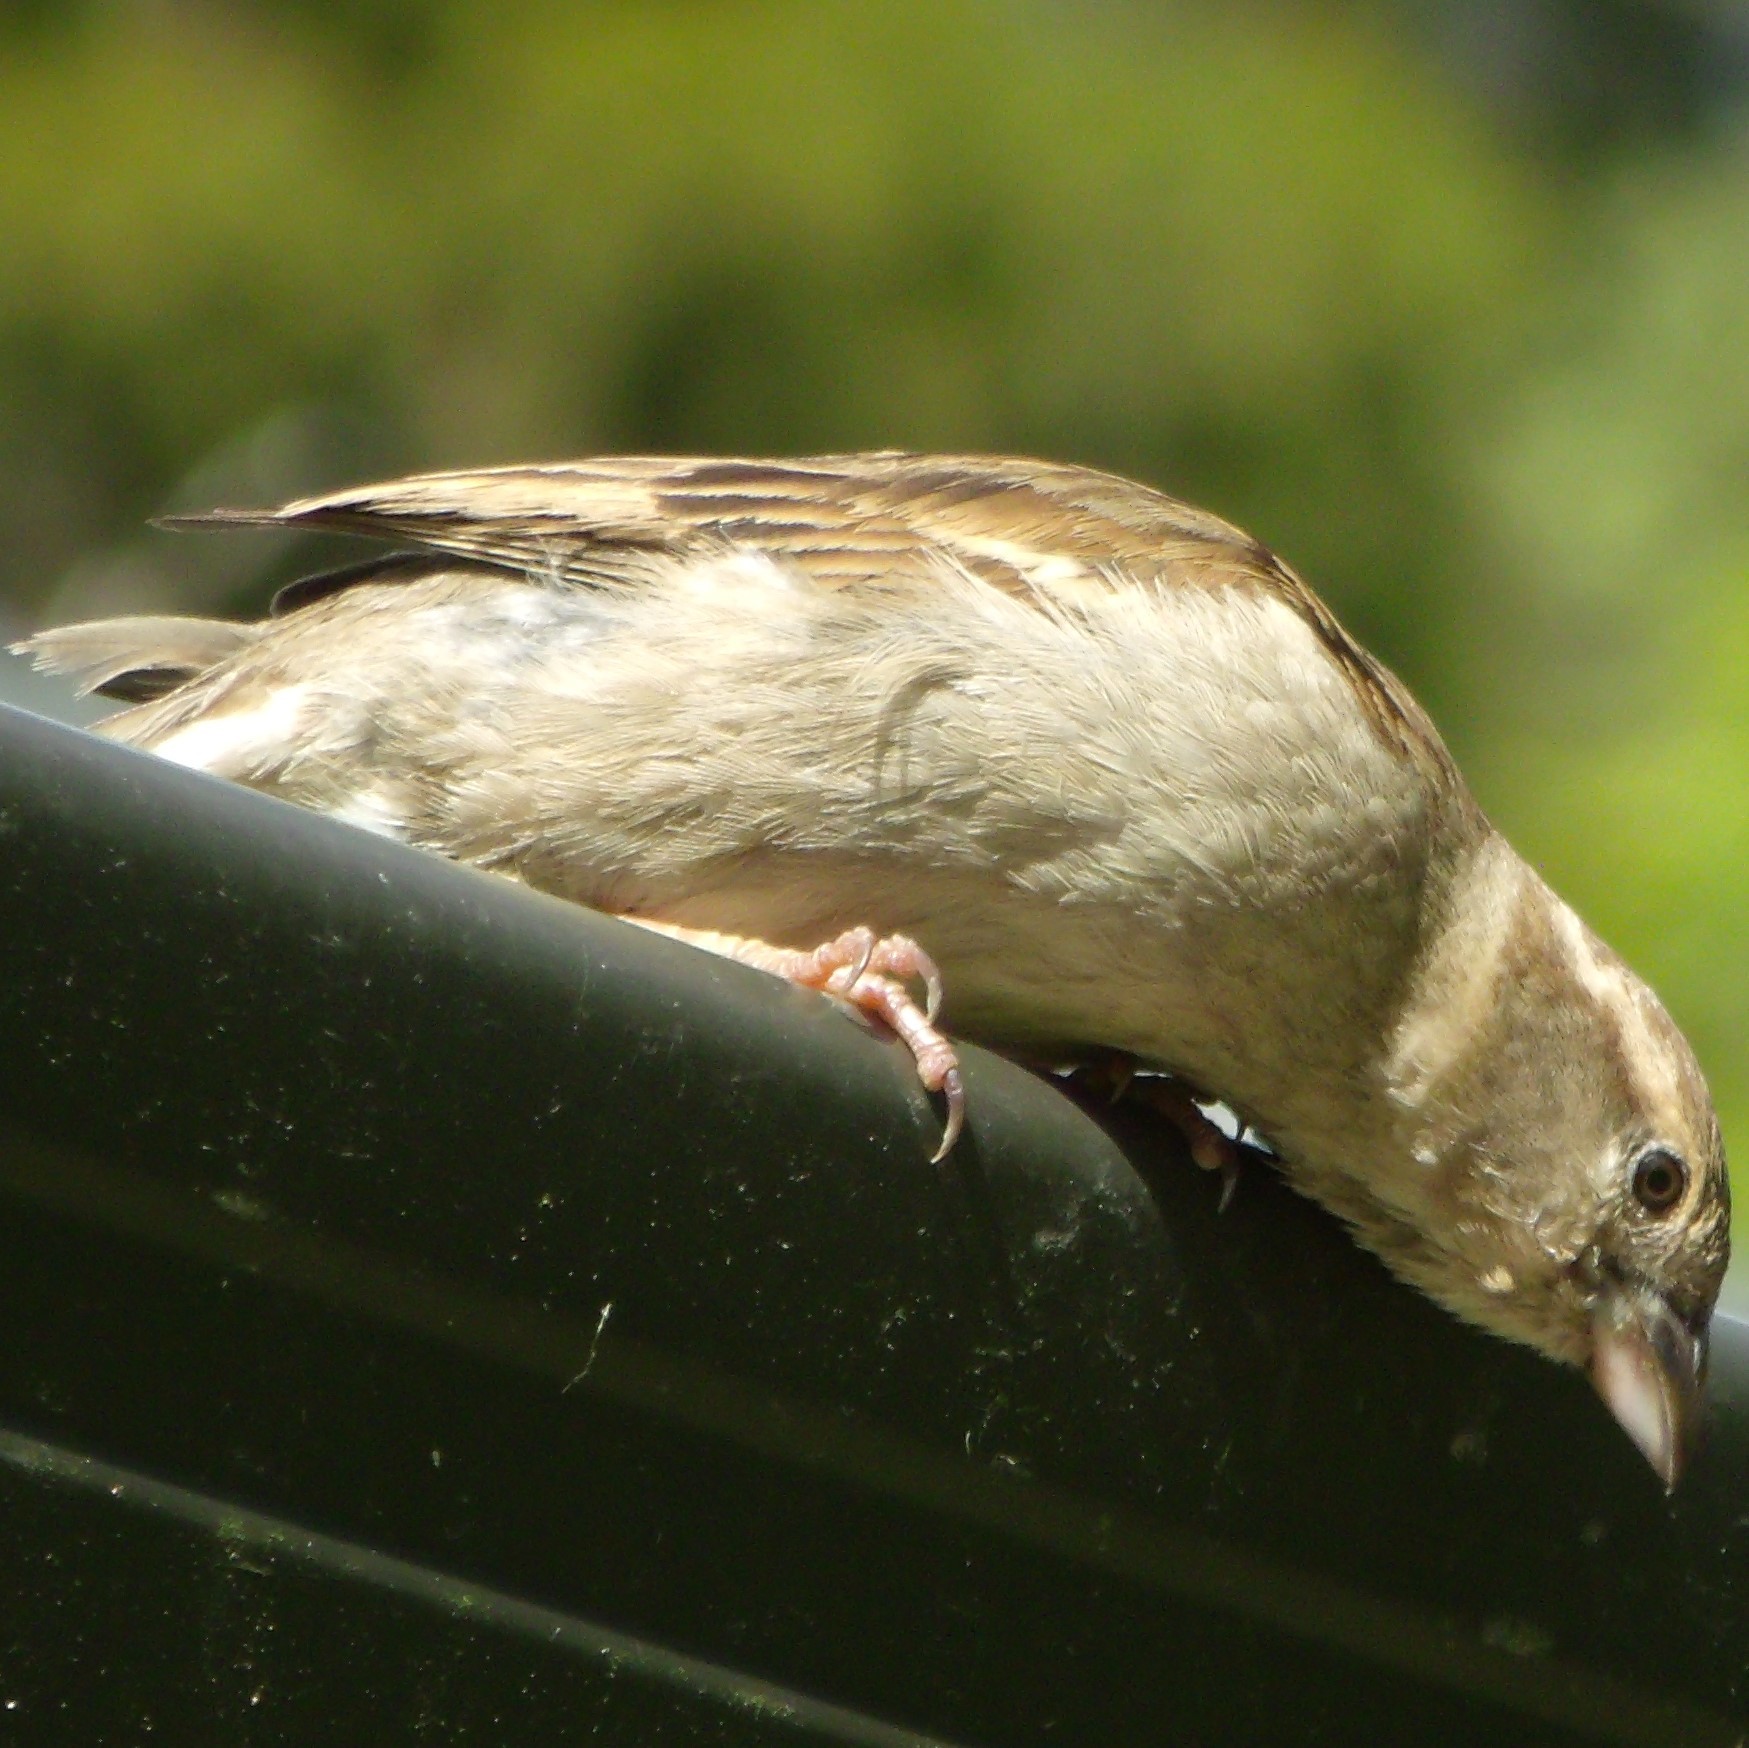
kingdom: Animalia
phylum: Chordata
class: Aves
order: Passeriformes
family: Passeridae
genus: Passer
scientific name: Passer domesticus
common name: House sparrow
